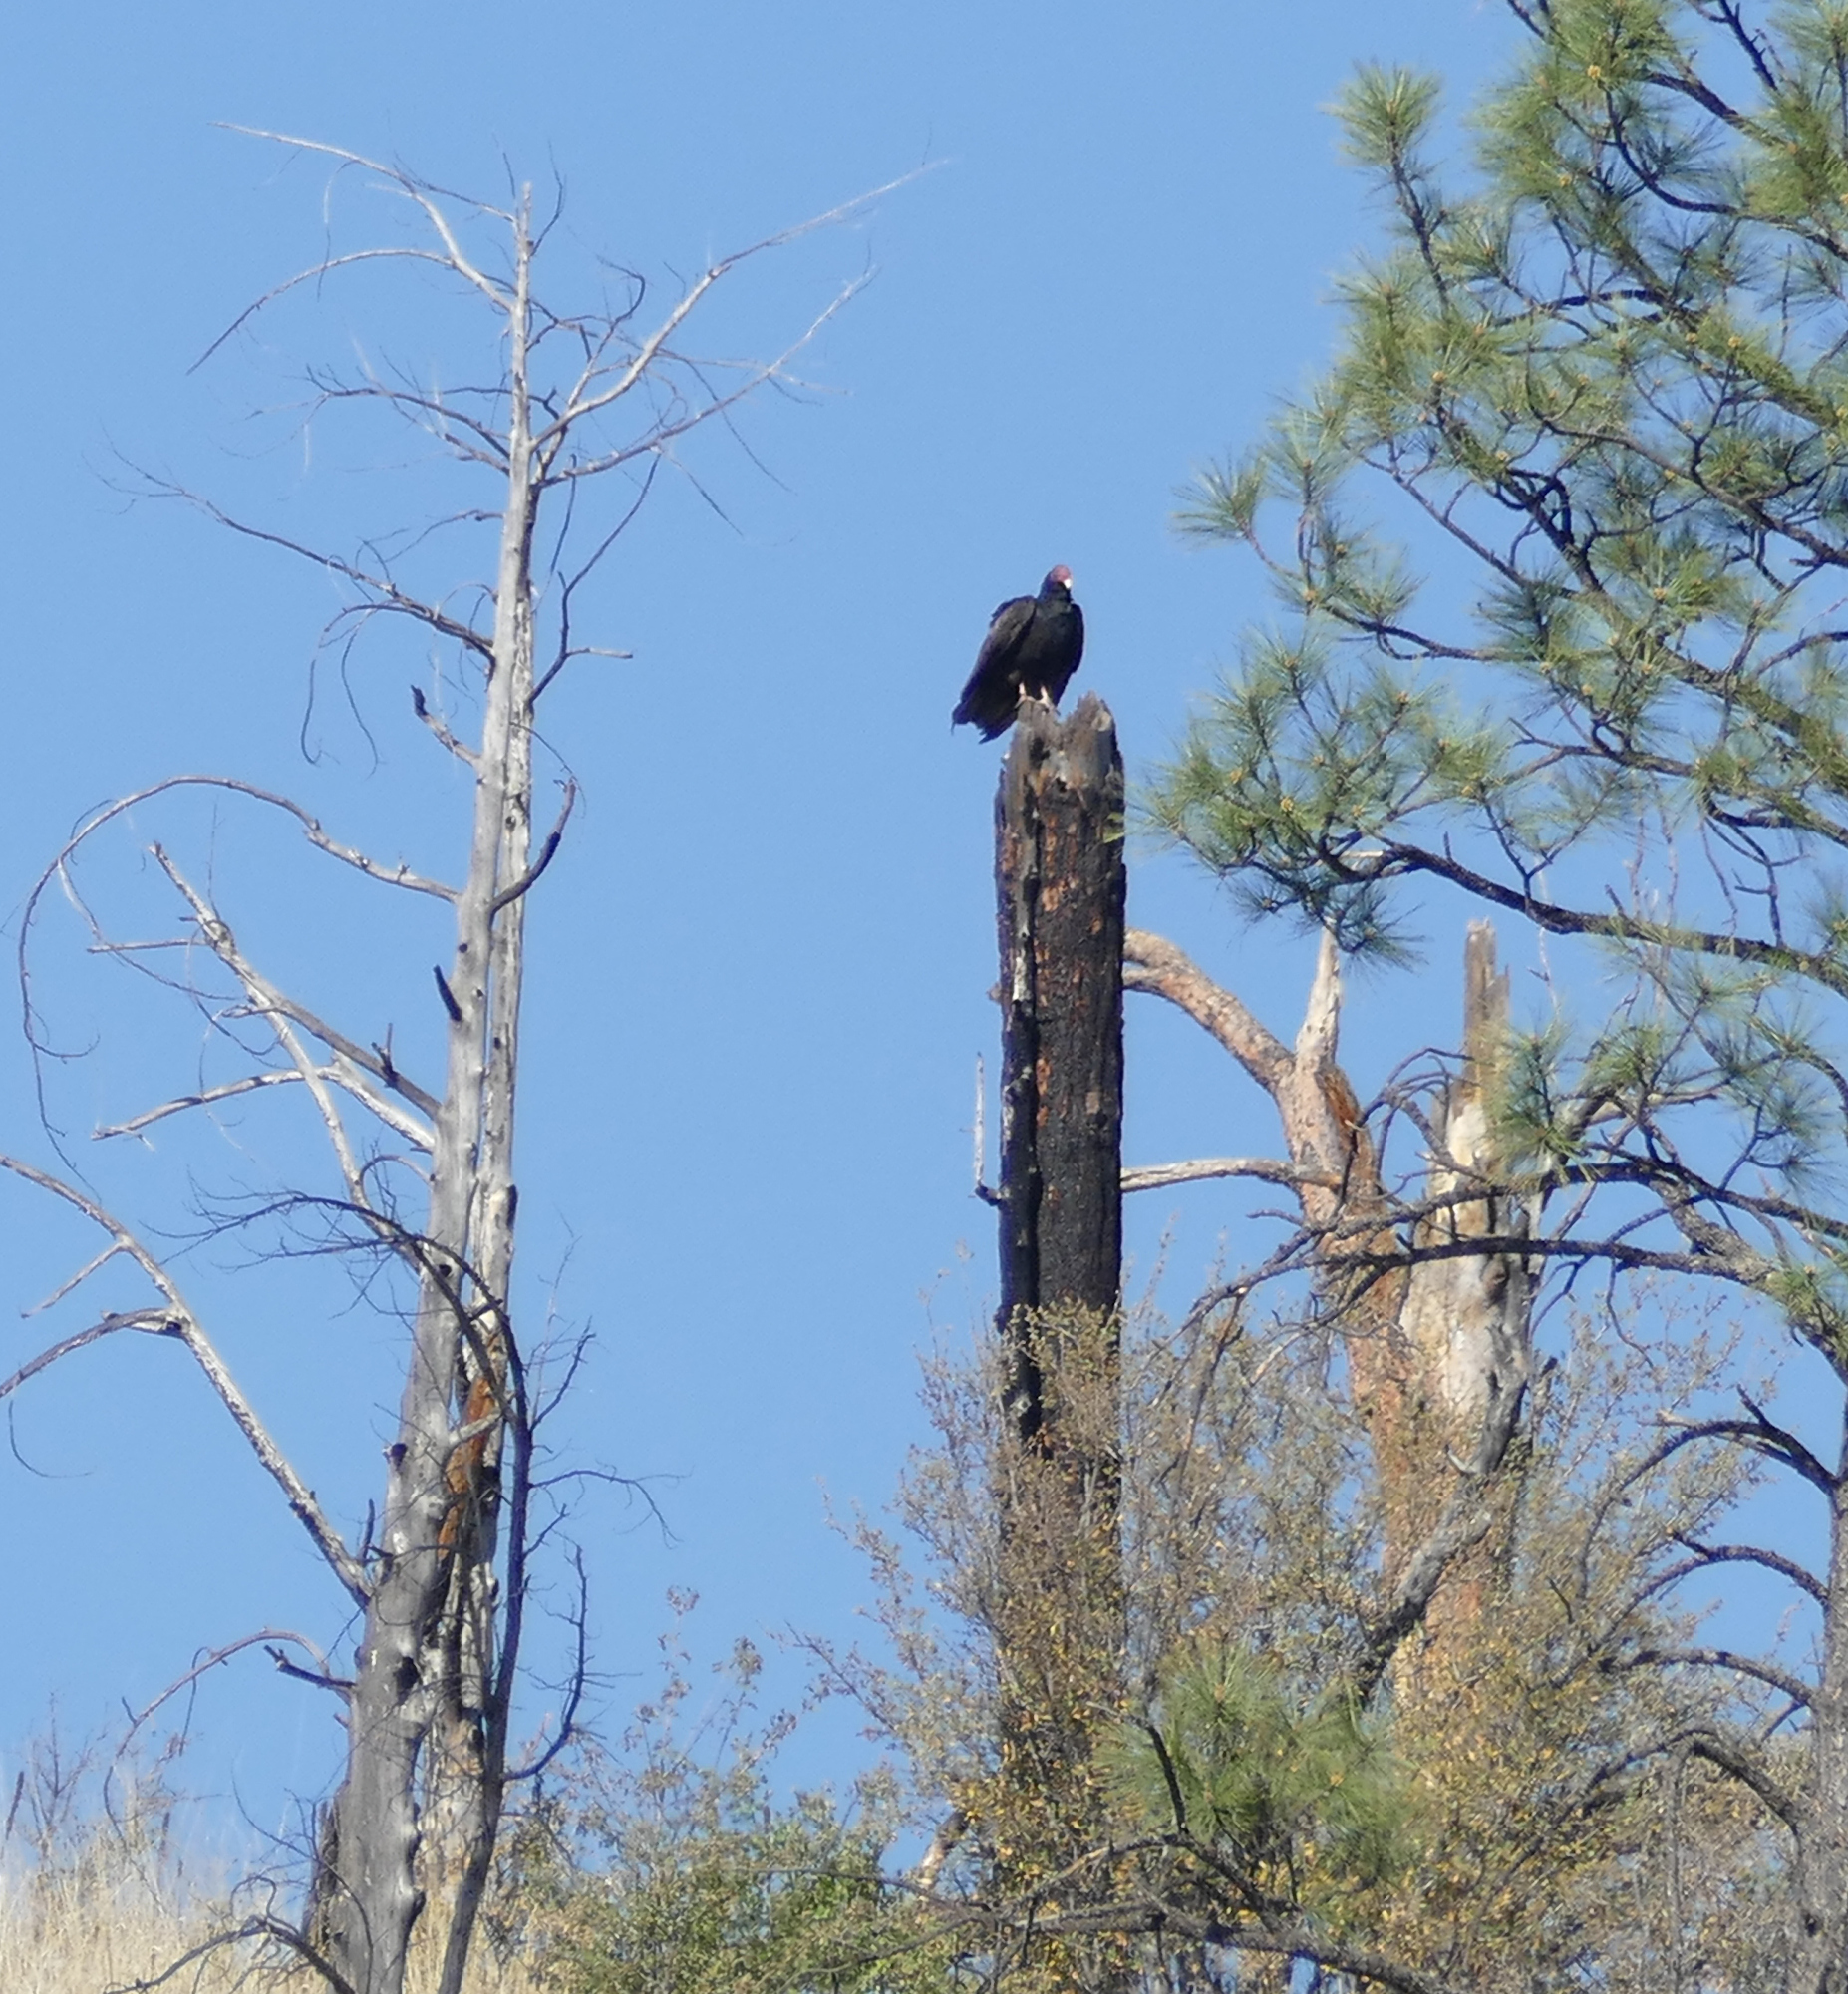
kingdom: Animalia
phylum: Chordata
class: Aves
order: Accipitriformes
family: Cathartidae
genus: Cathartes
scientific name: Cathartes aura
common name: Turkey vulture
